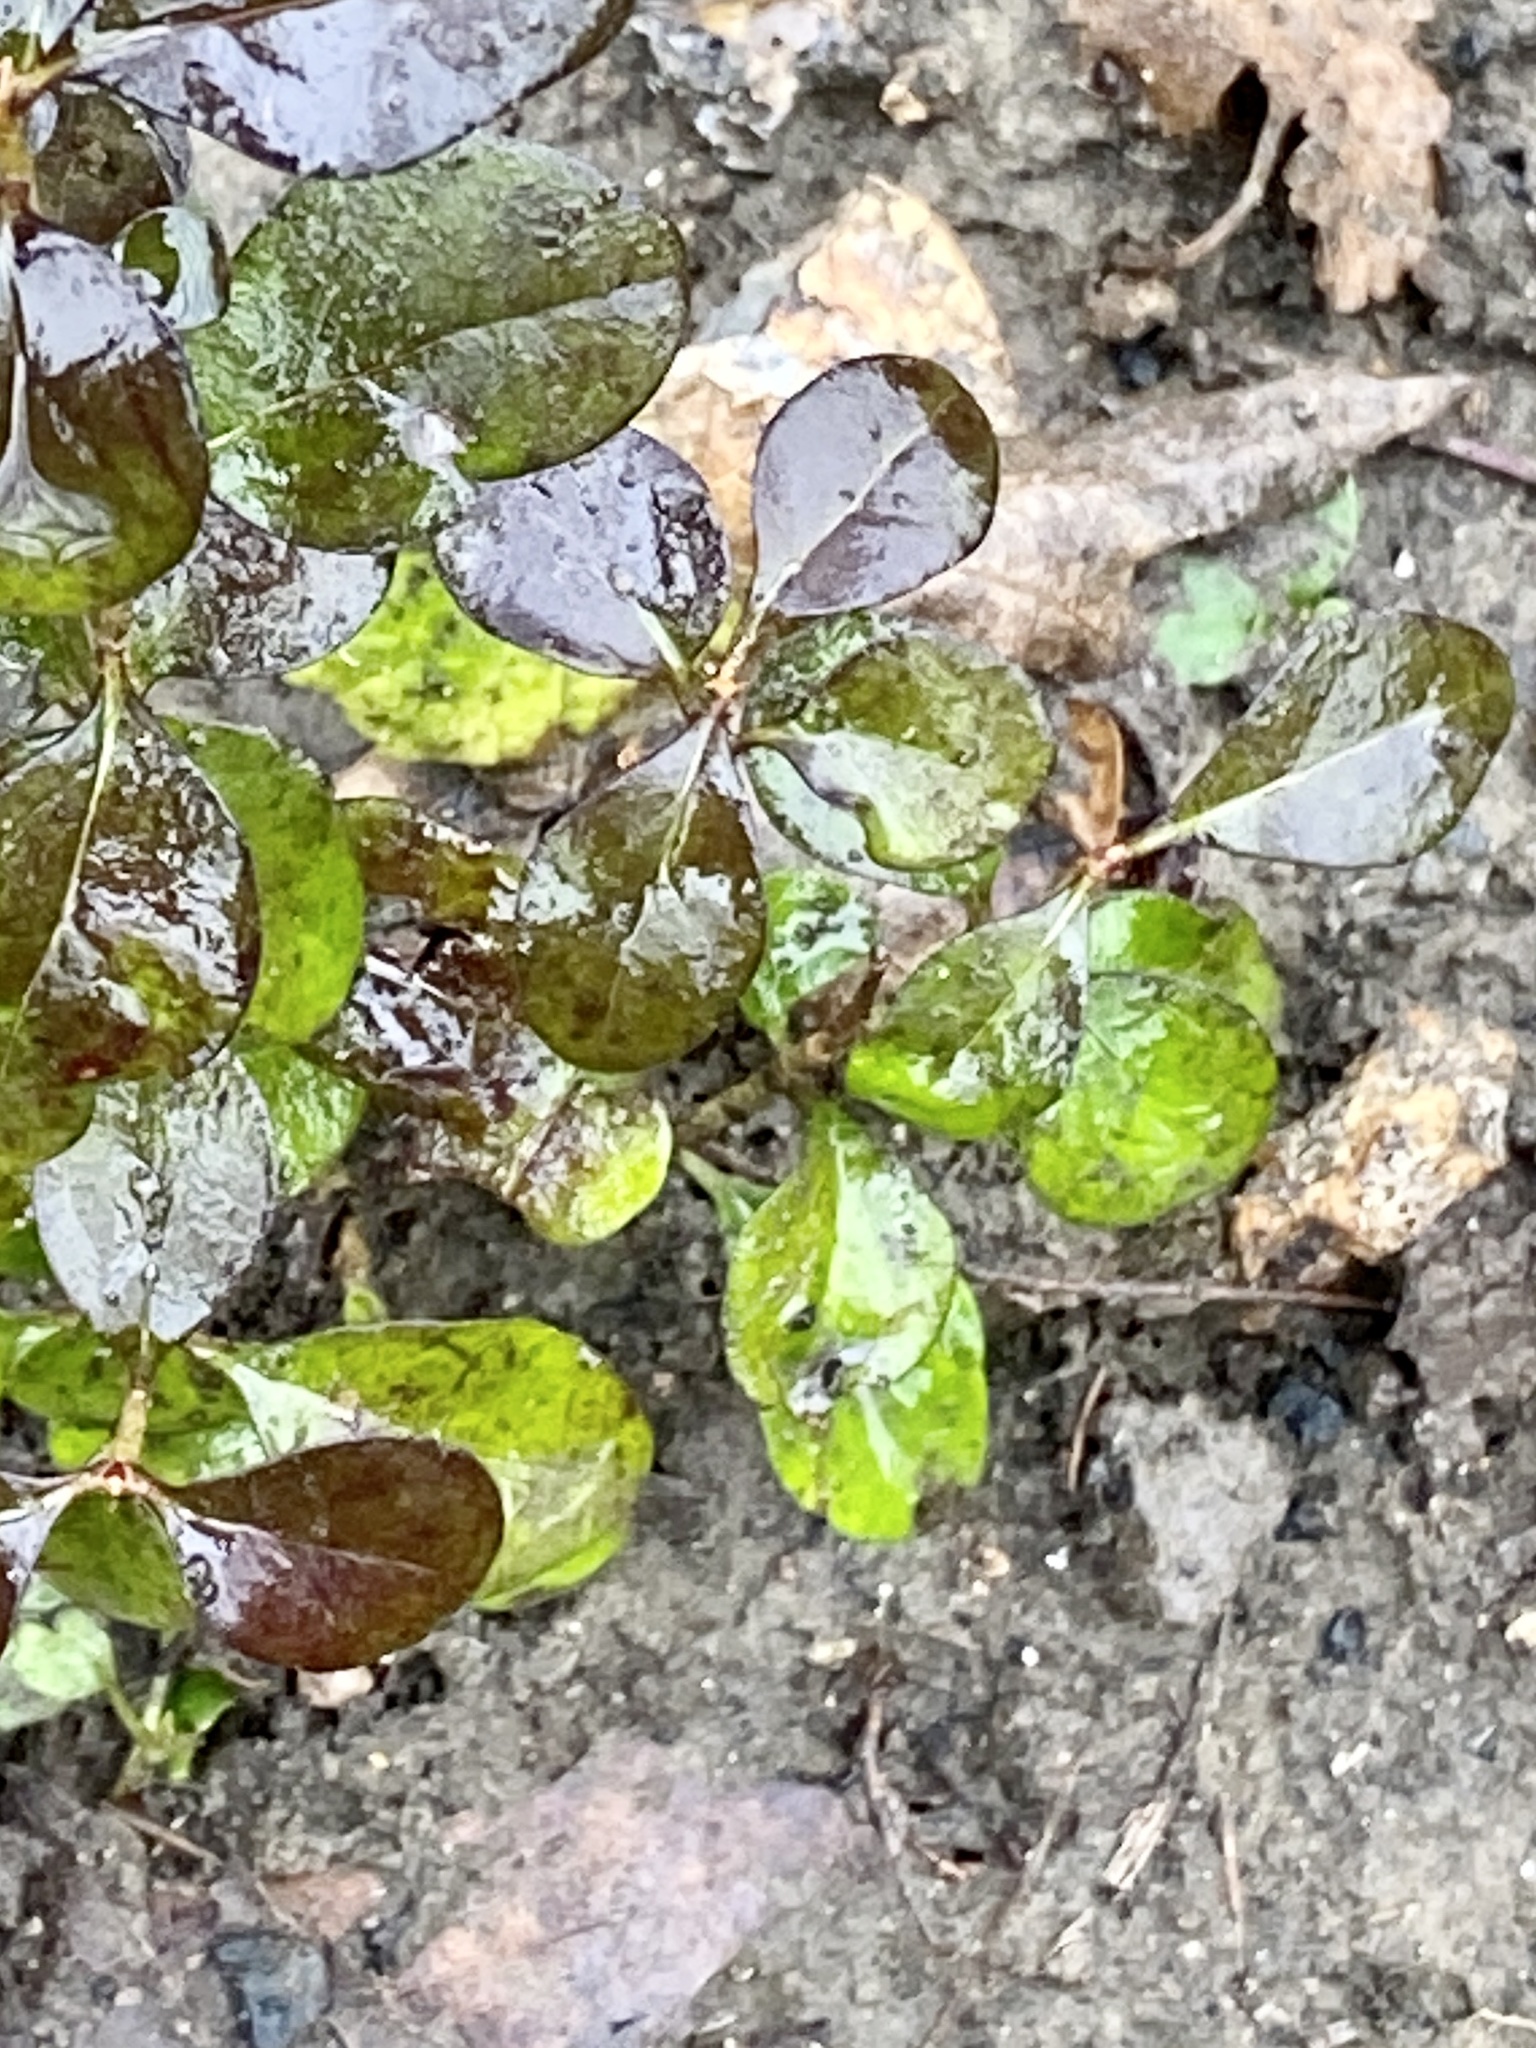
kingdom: Plantae
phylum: Tracheophyta
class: Magnoliopsida
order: Lamiales
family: Oleaceae
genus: Ligustrum
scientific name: Ligustrum obtusifolium
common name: Border privet
